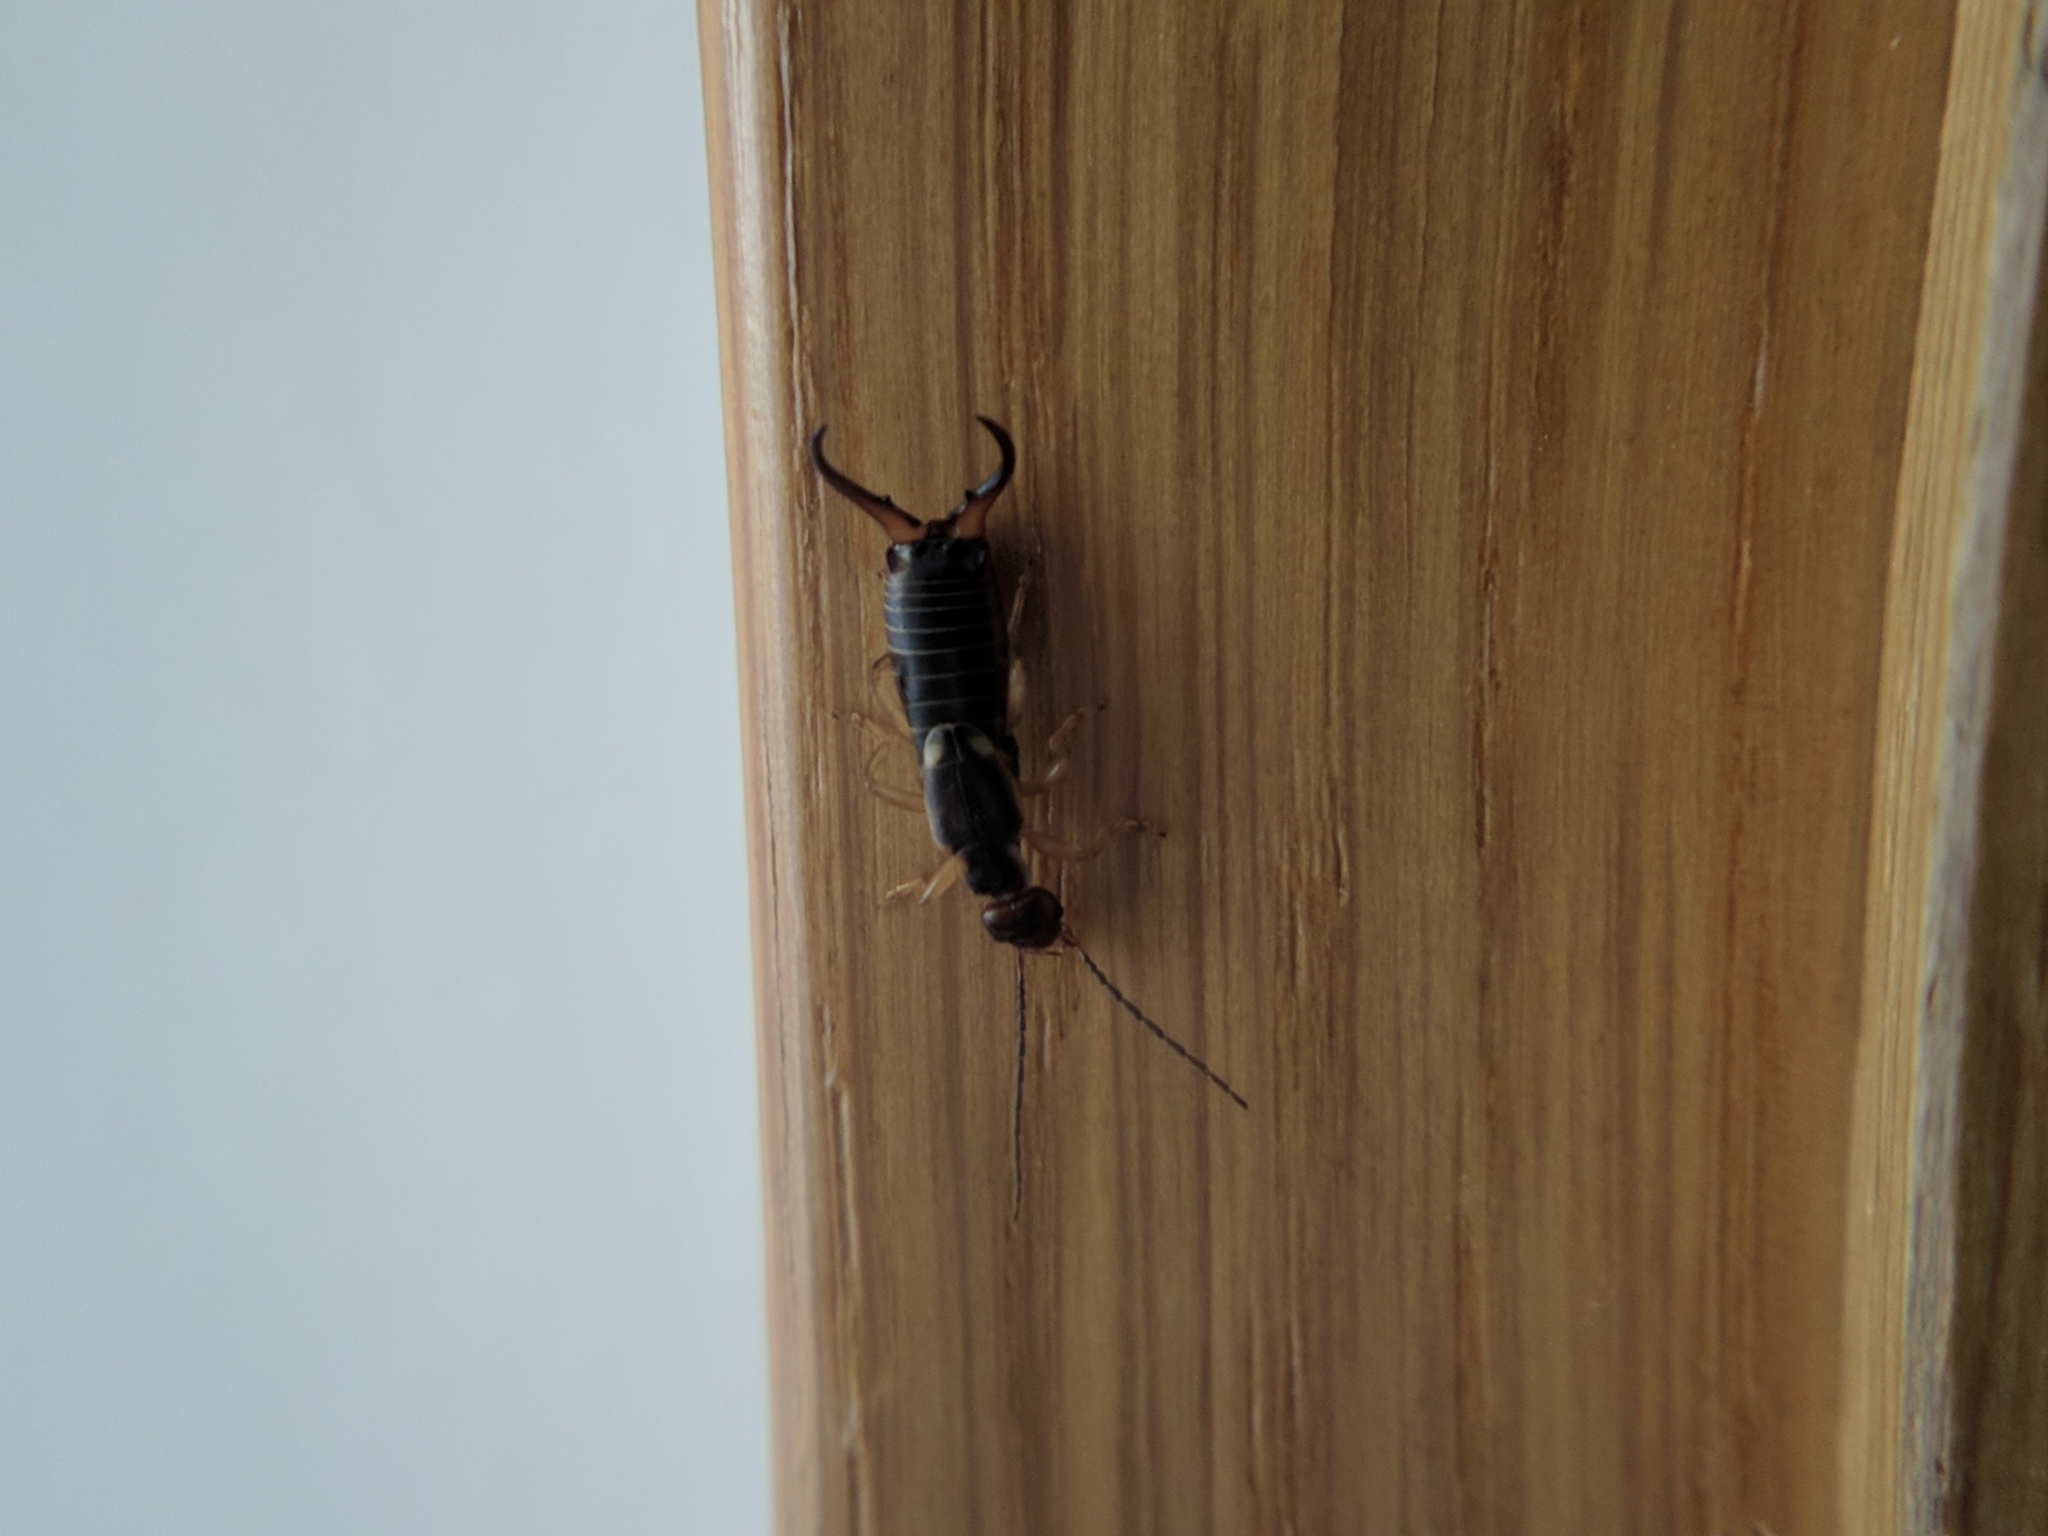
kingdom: Animalia
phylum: Arthropoda
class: Insecta
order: Dermaptera
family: Forficulidae
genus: Forficula
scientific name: Forficula
